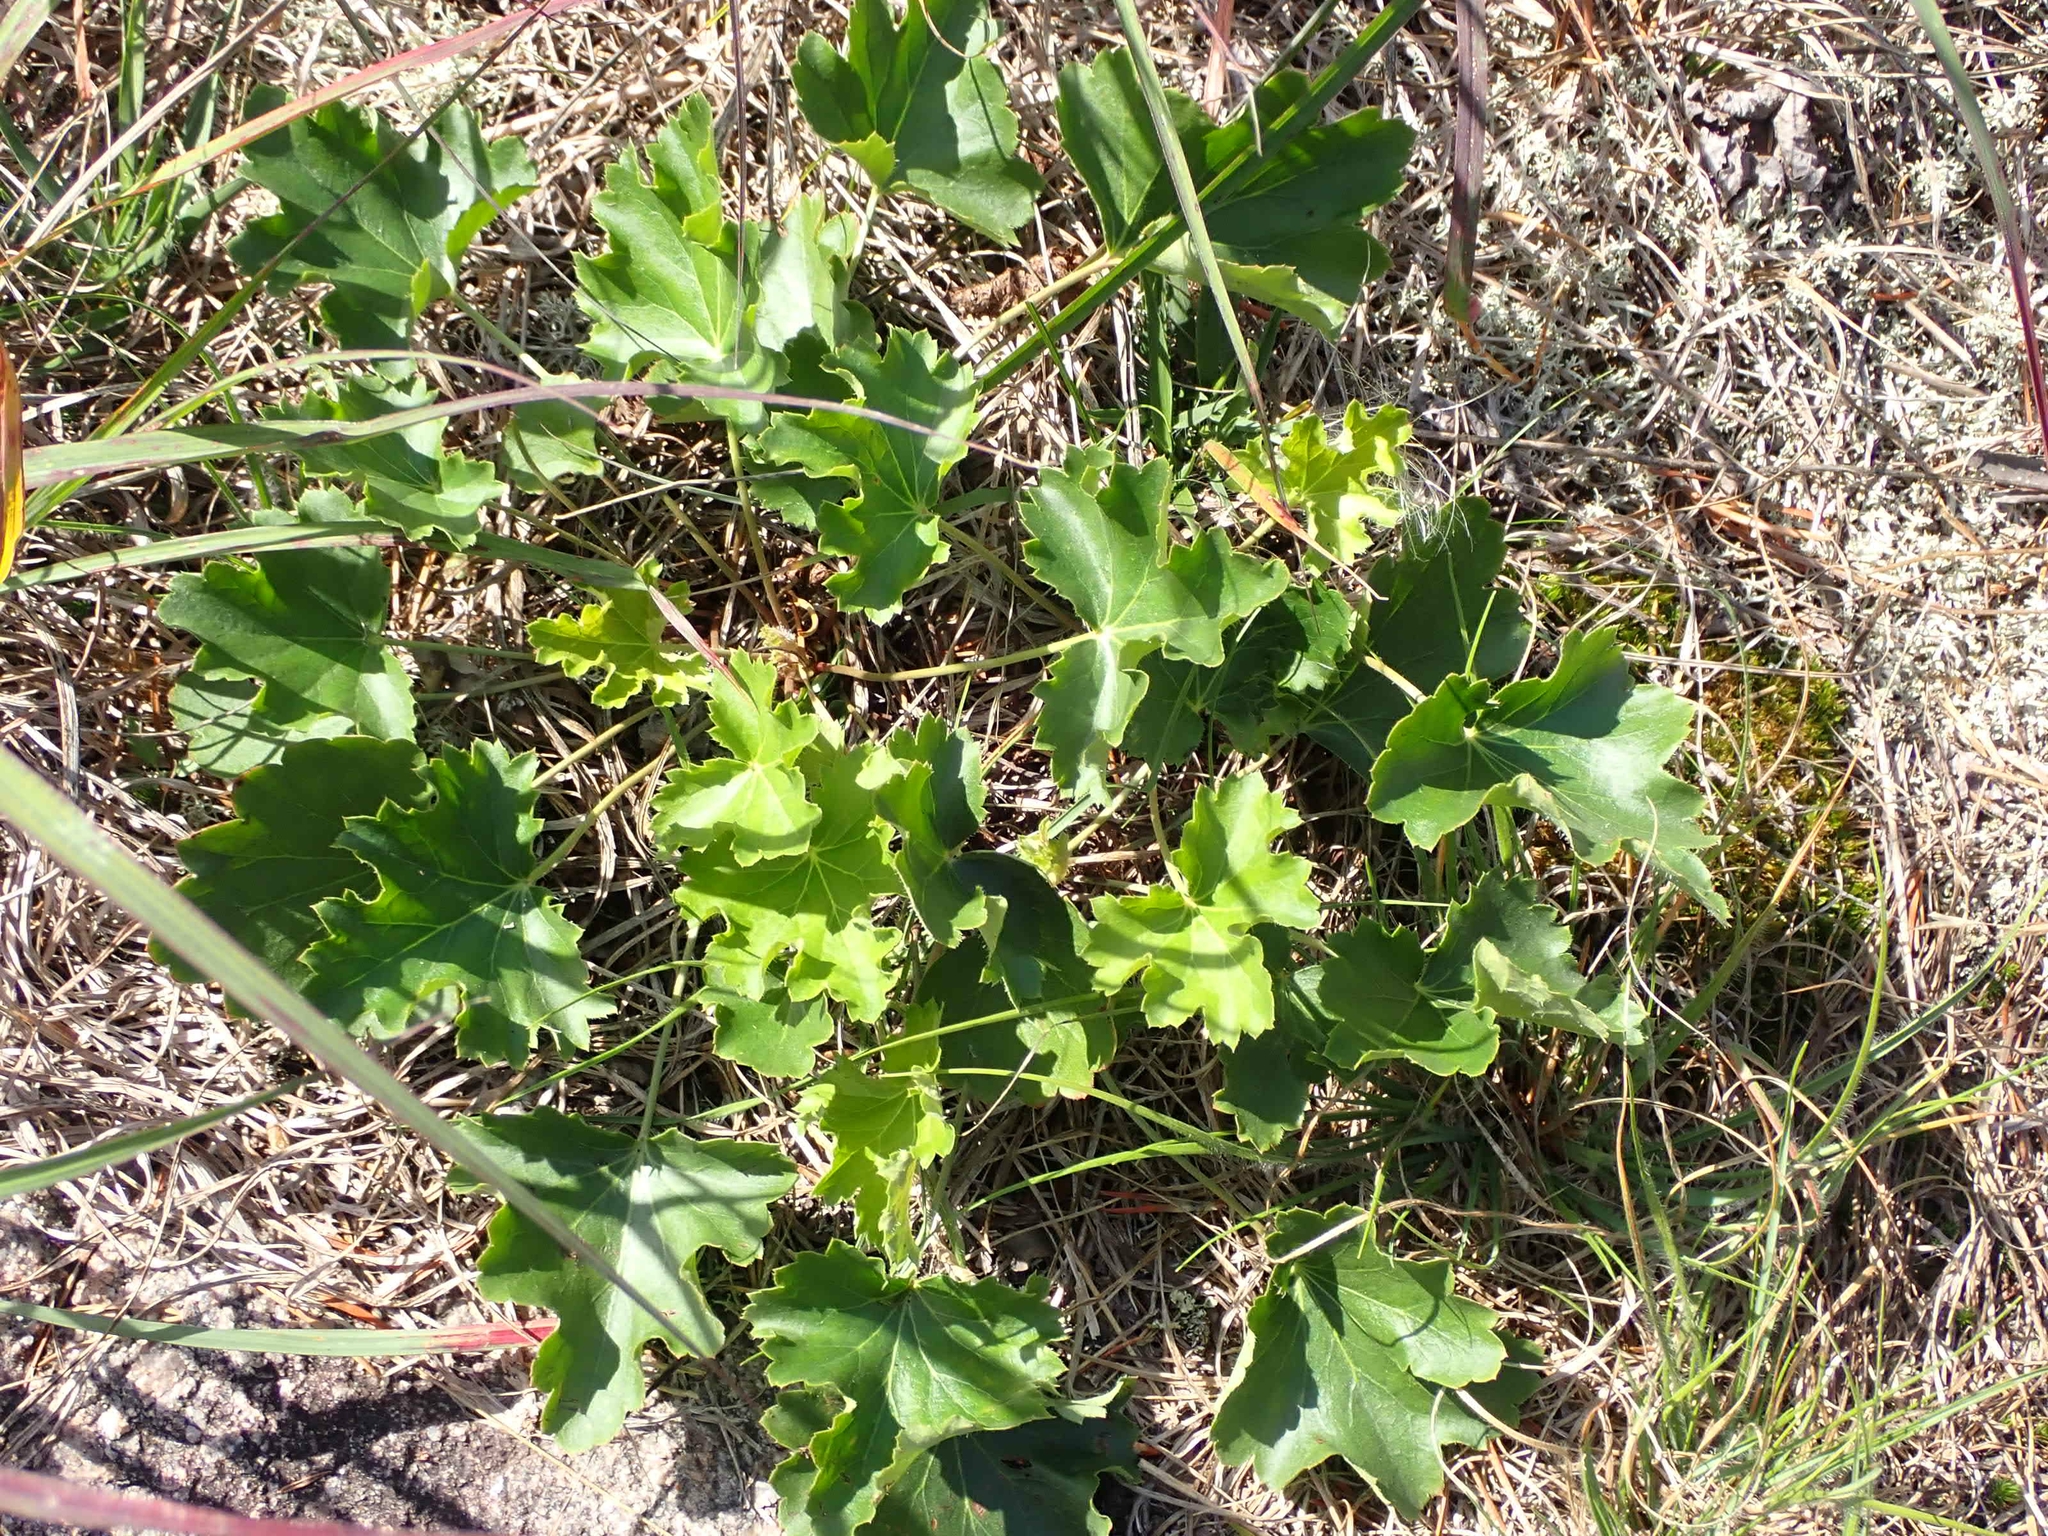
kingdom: Plantae
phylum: Tracheophyta
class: Magnoliopsida
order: Saxifragales
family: Saxifragaceae
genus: Heuchera
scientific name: Heuchera richardsonii
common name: Richardson's alumroot
